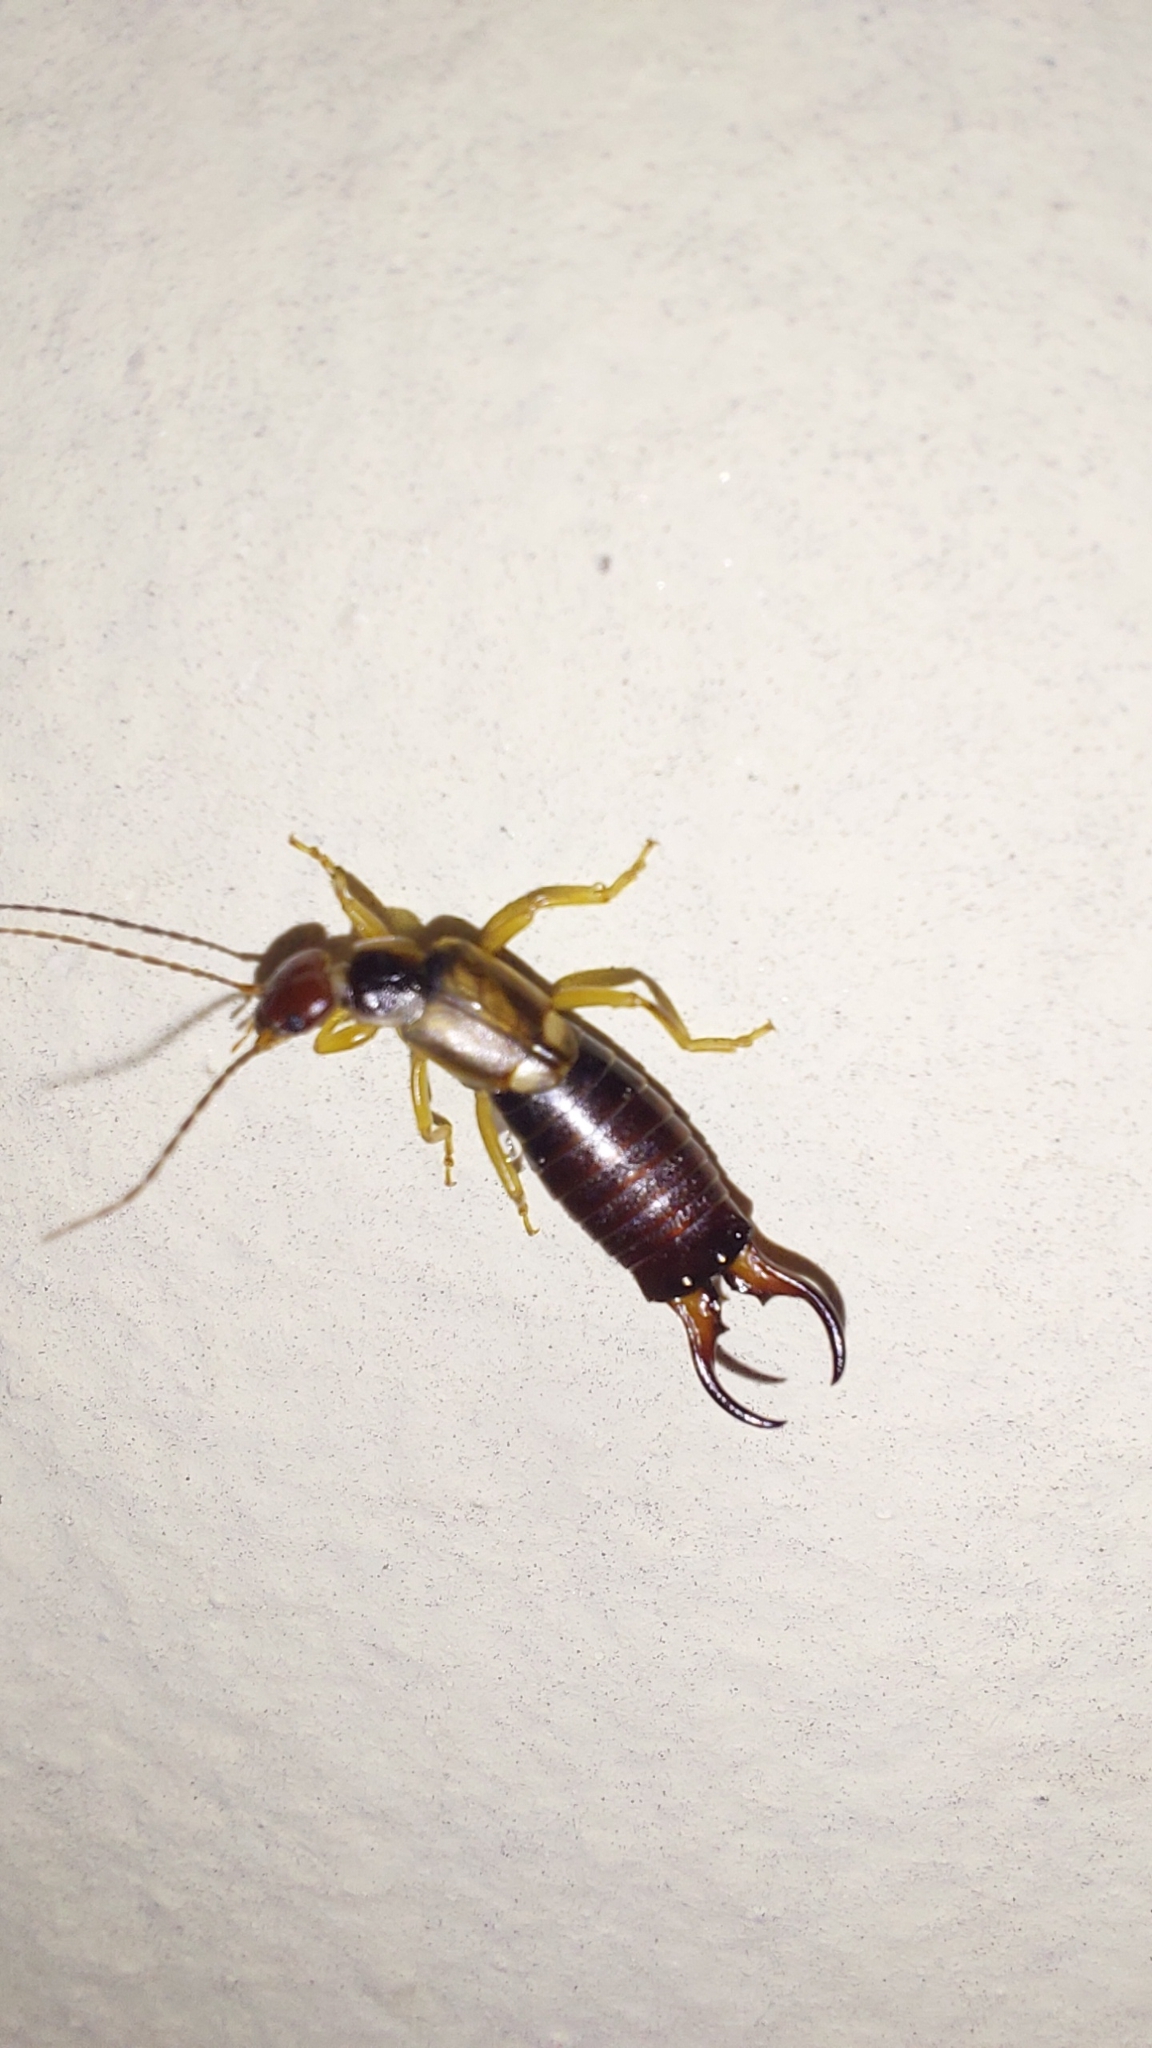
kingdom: Animalia
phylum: Arthropoda
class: Insecta
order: Dermaptera
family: Forficulidae
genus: Forficula
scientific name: Forficula
